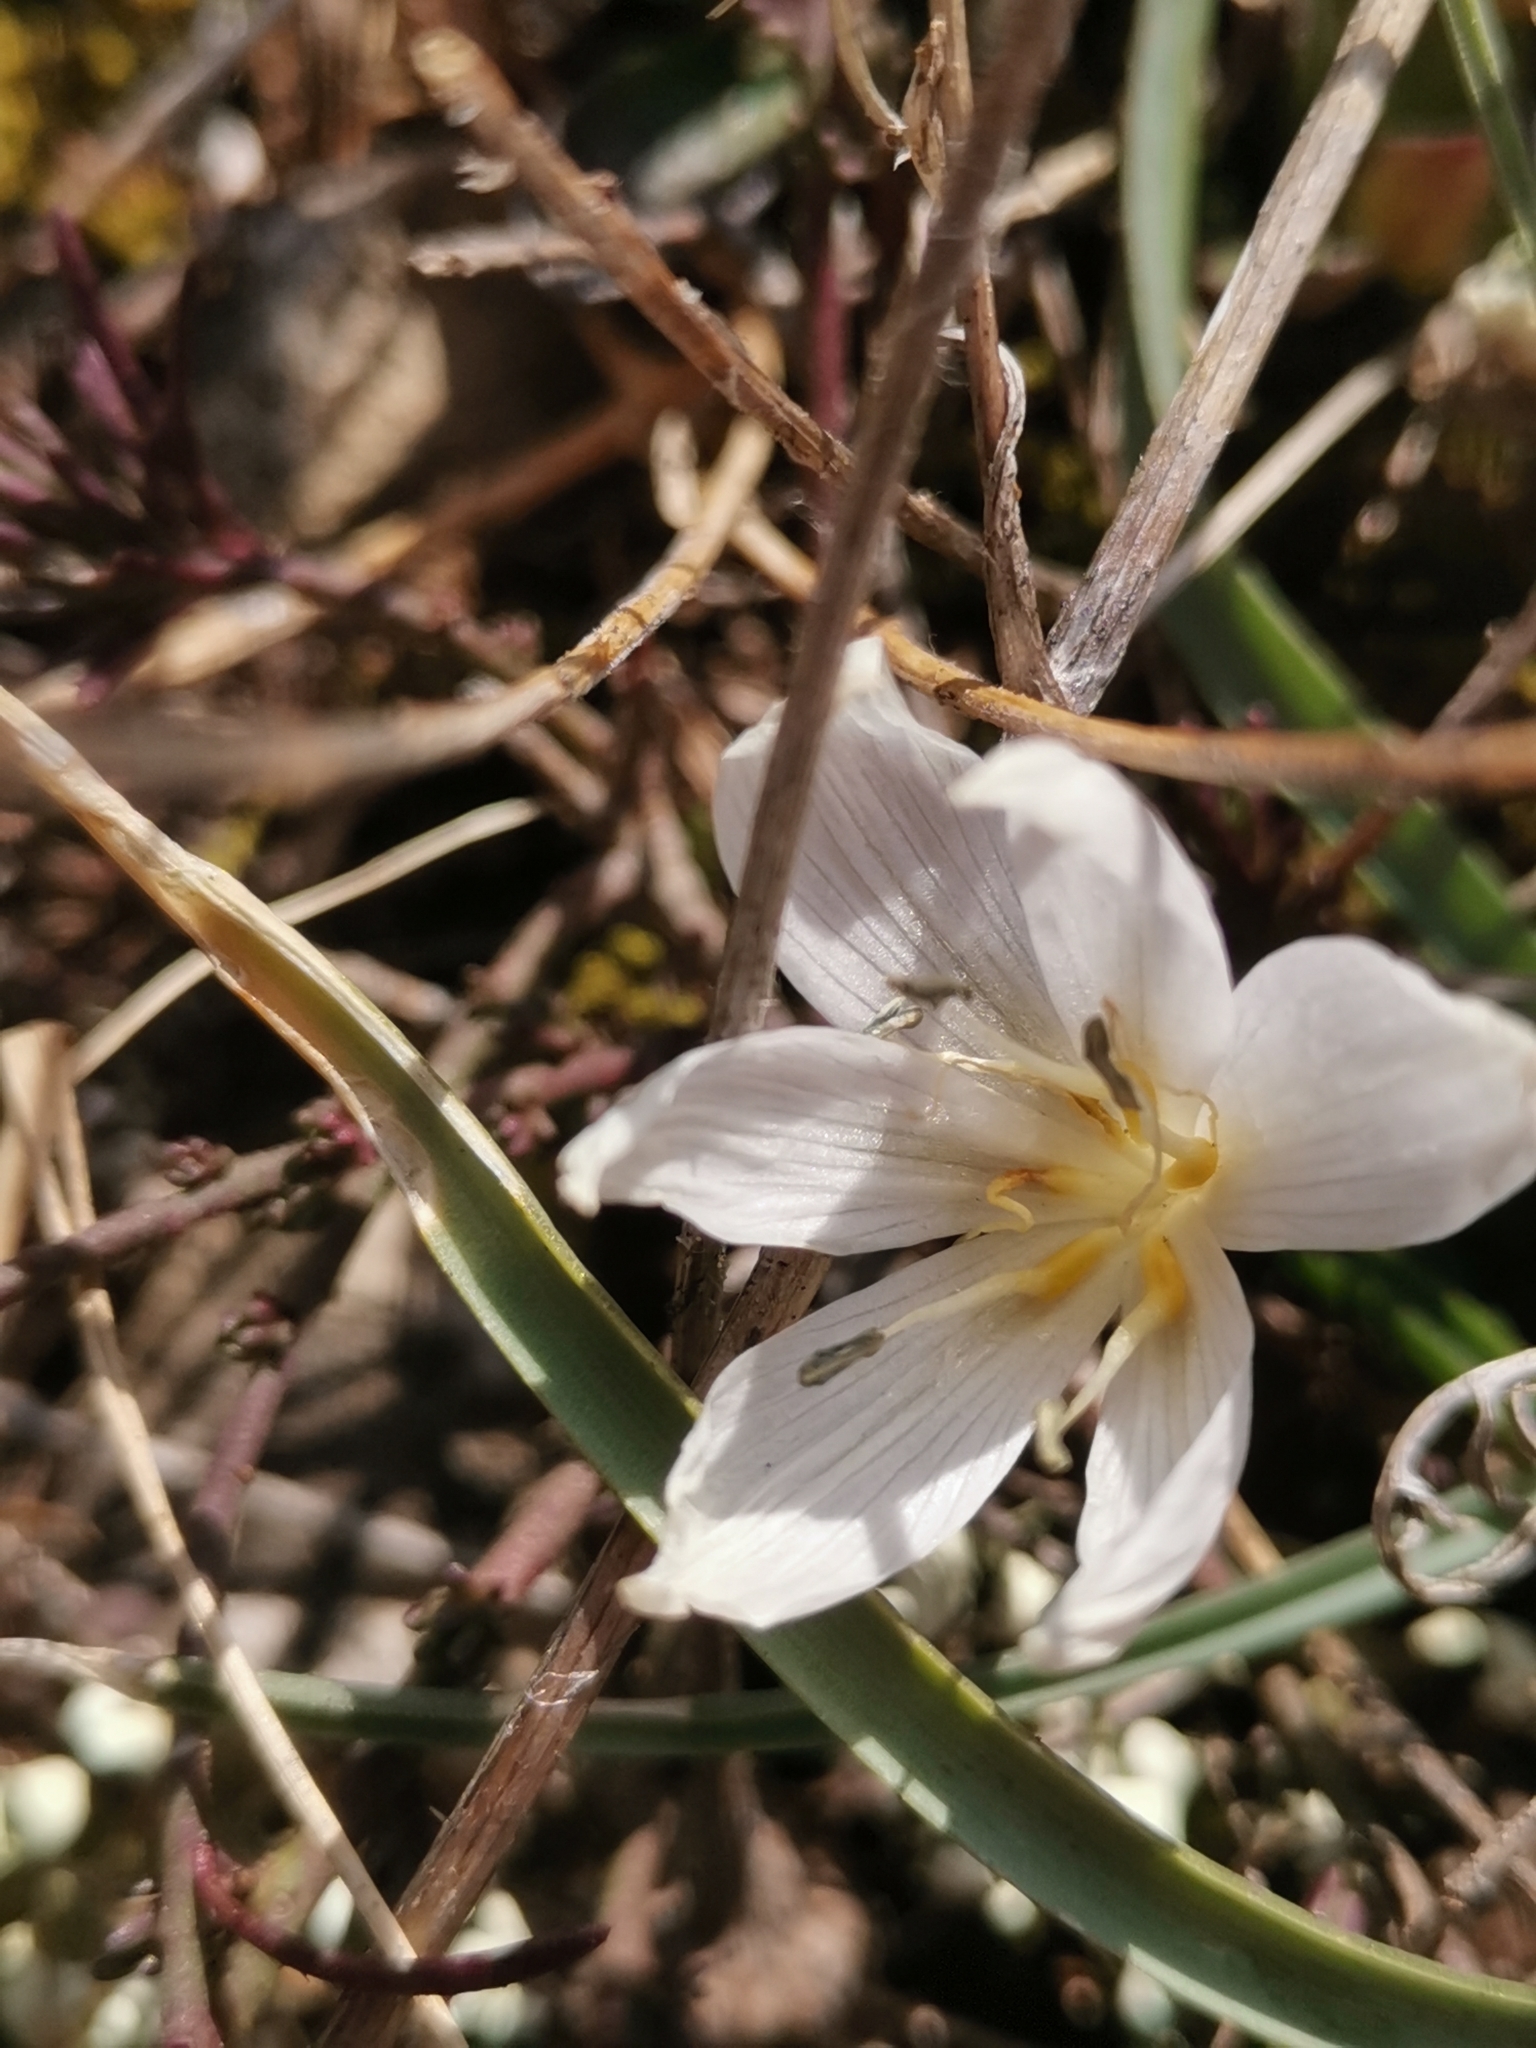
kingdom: Plantae
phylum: Tracheophyta
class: Liliopsida
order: Liliales
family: Colchicaceae
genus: Colchicum
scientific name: Colchicum hungaricum
